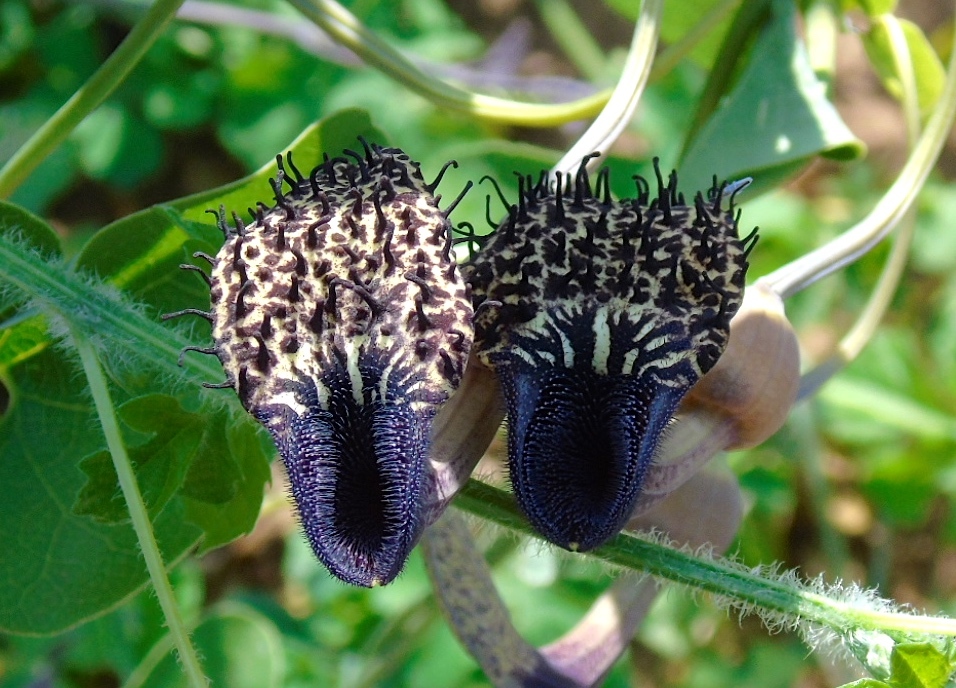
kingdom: Plantae
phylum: Tracheophyta
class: Magnoliopsida
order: Piperales
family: Aristolochiaceae
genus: Aristolochia
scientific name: Aristolochia taliscana
